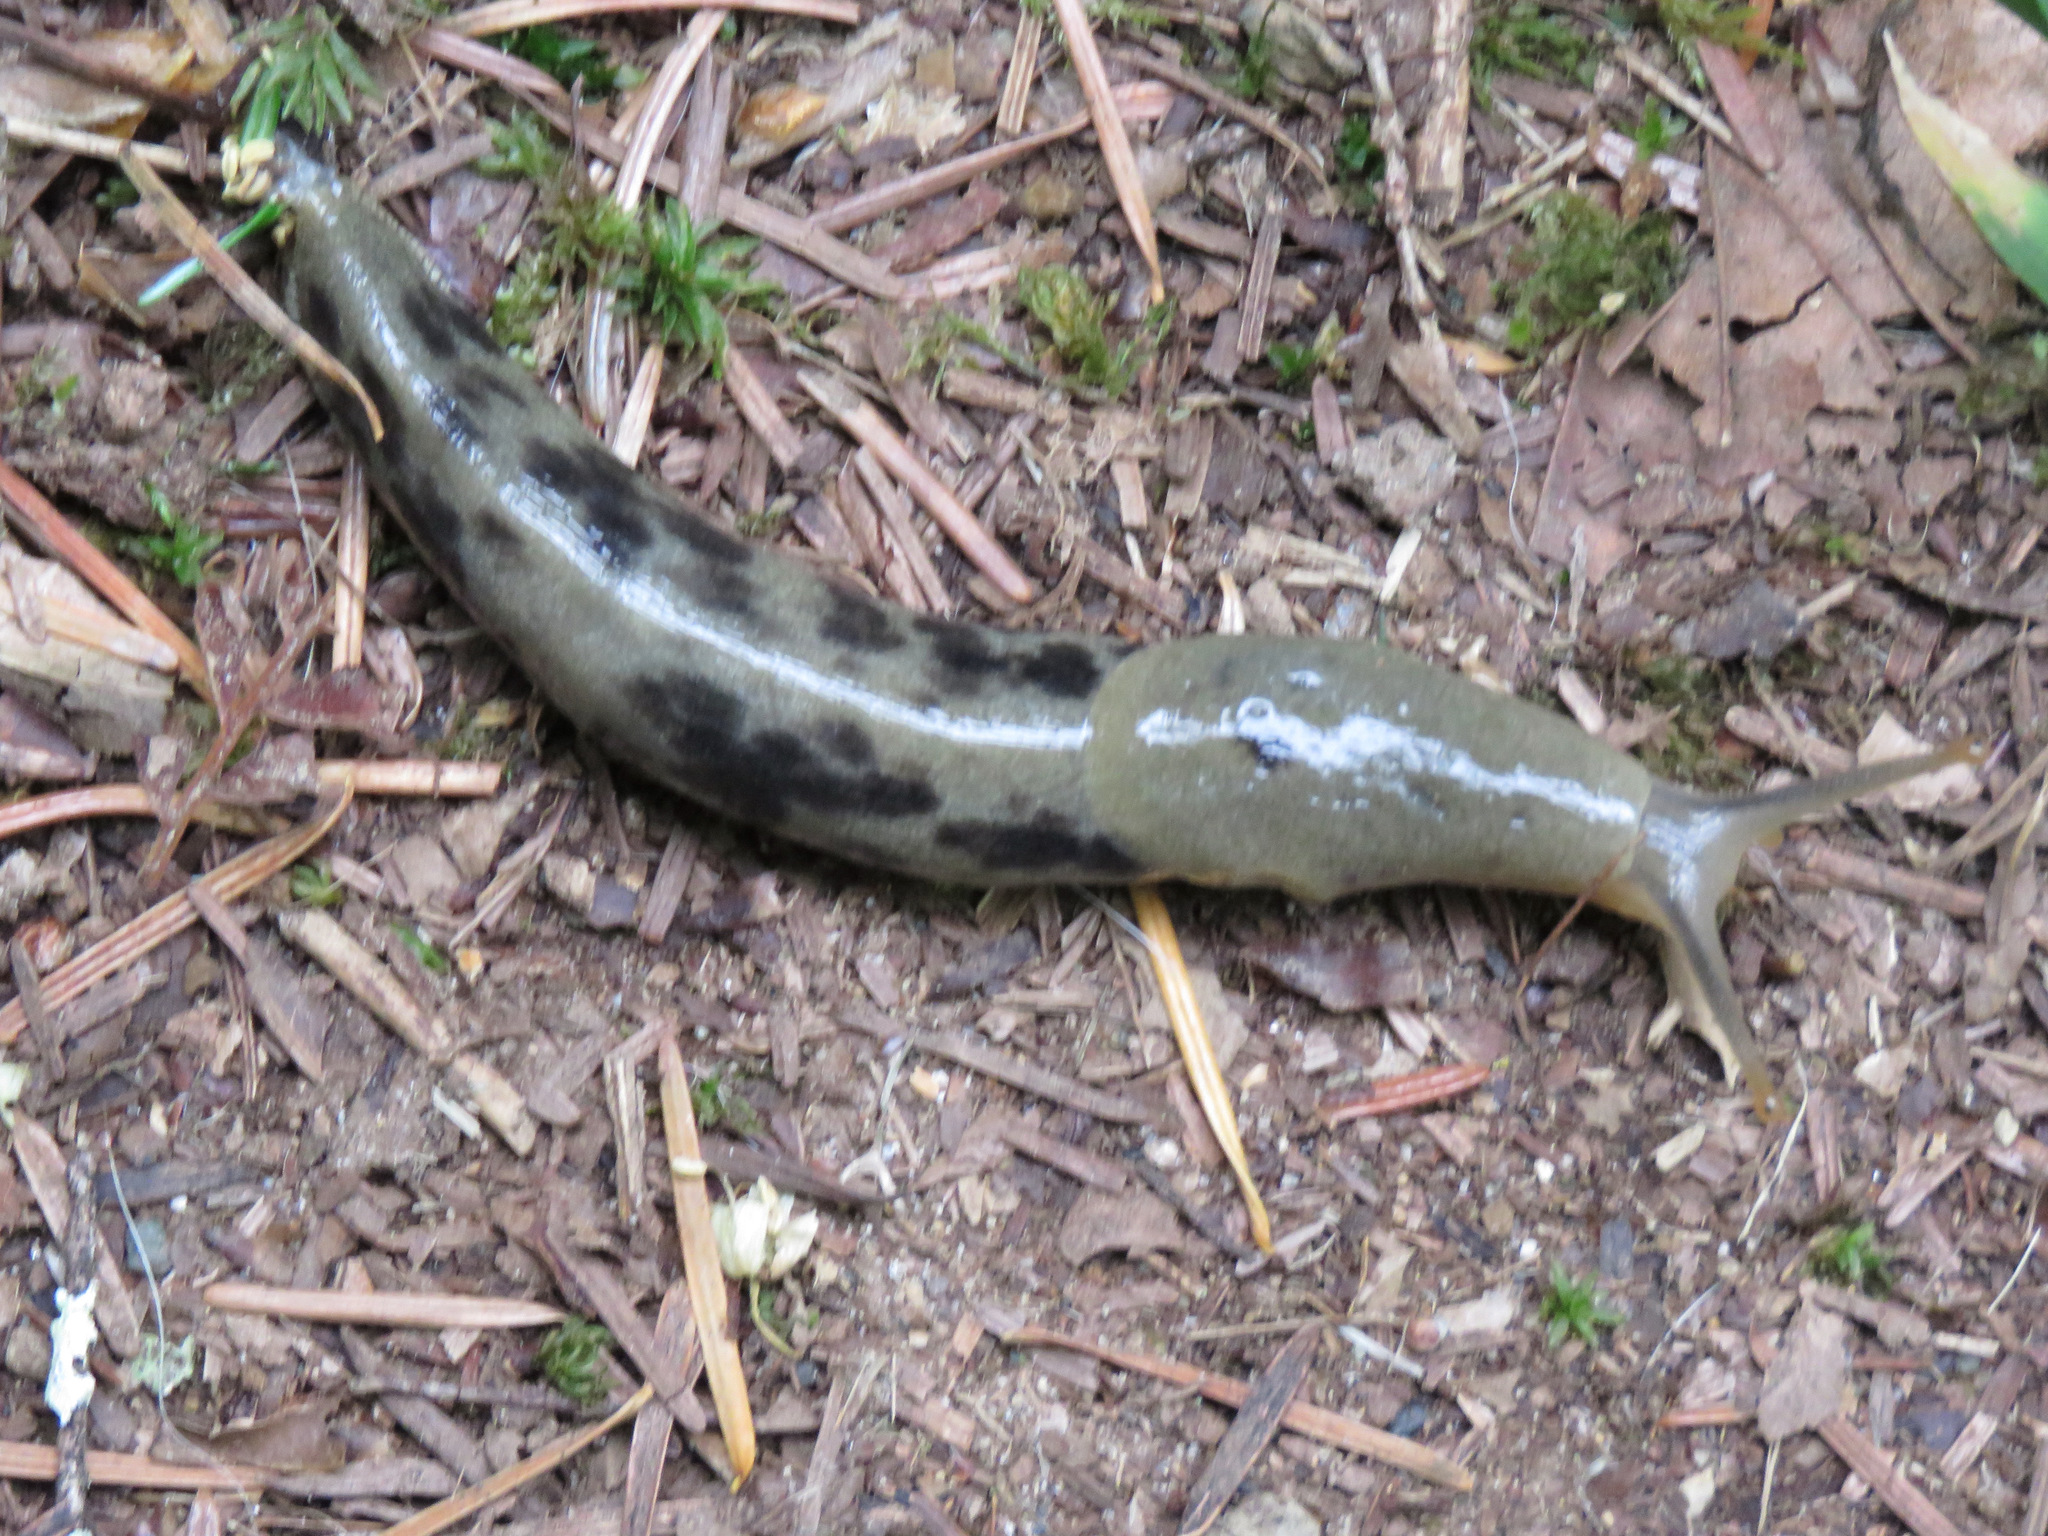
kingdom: Animalia
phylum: Mollusca
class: Gastropoda
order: Stylommatophora
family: Ariolimacidae
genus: Ariolimax
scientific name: Ariolimax columbianus
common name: Pacific banana slug
